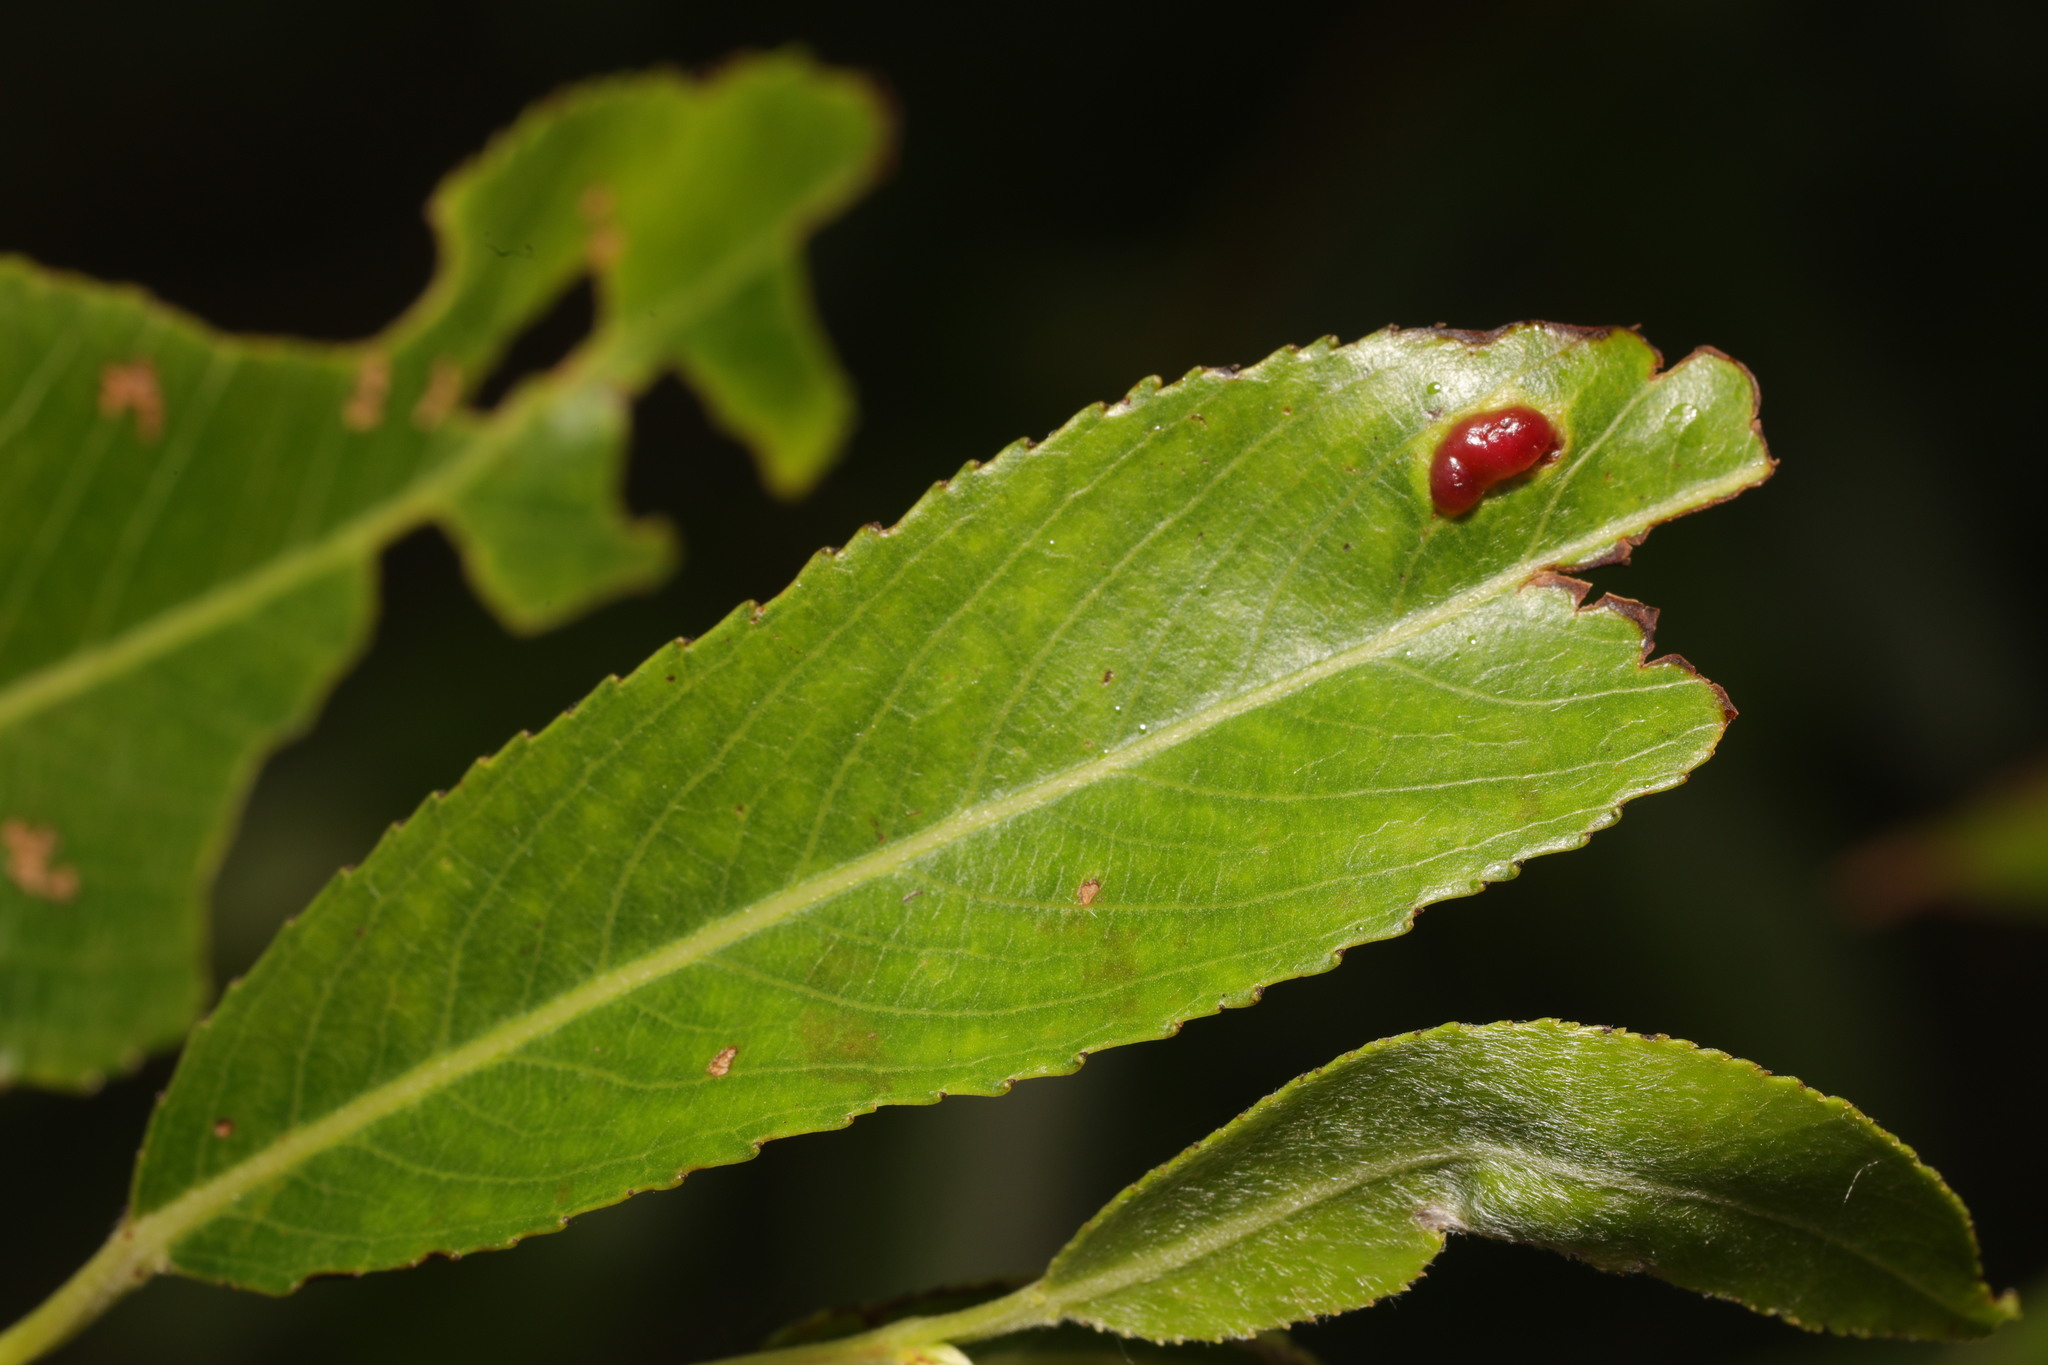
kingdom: Animalia
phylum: Arthropoda
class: Insecta
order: Hymenoptera
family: Tenthredinidae
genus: Pontania
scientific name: Pontania proxima
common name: Common sawfly
